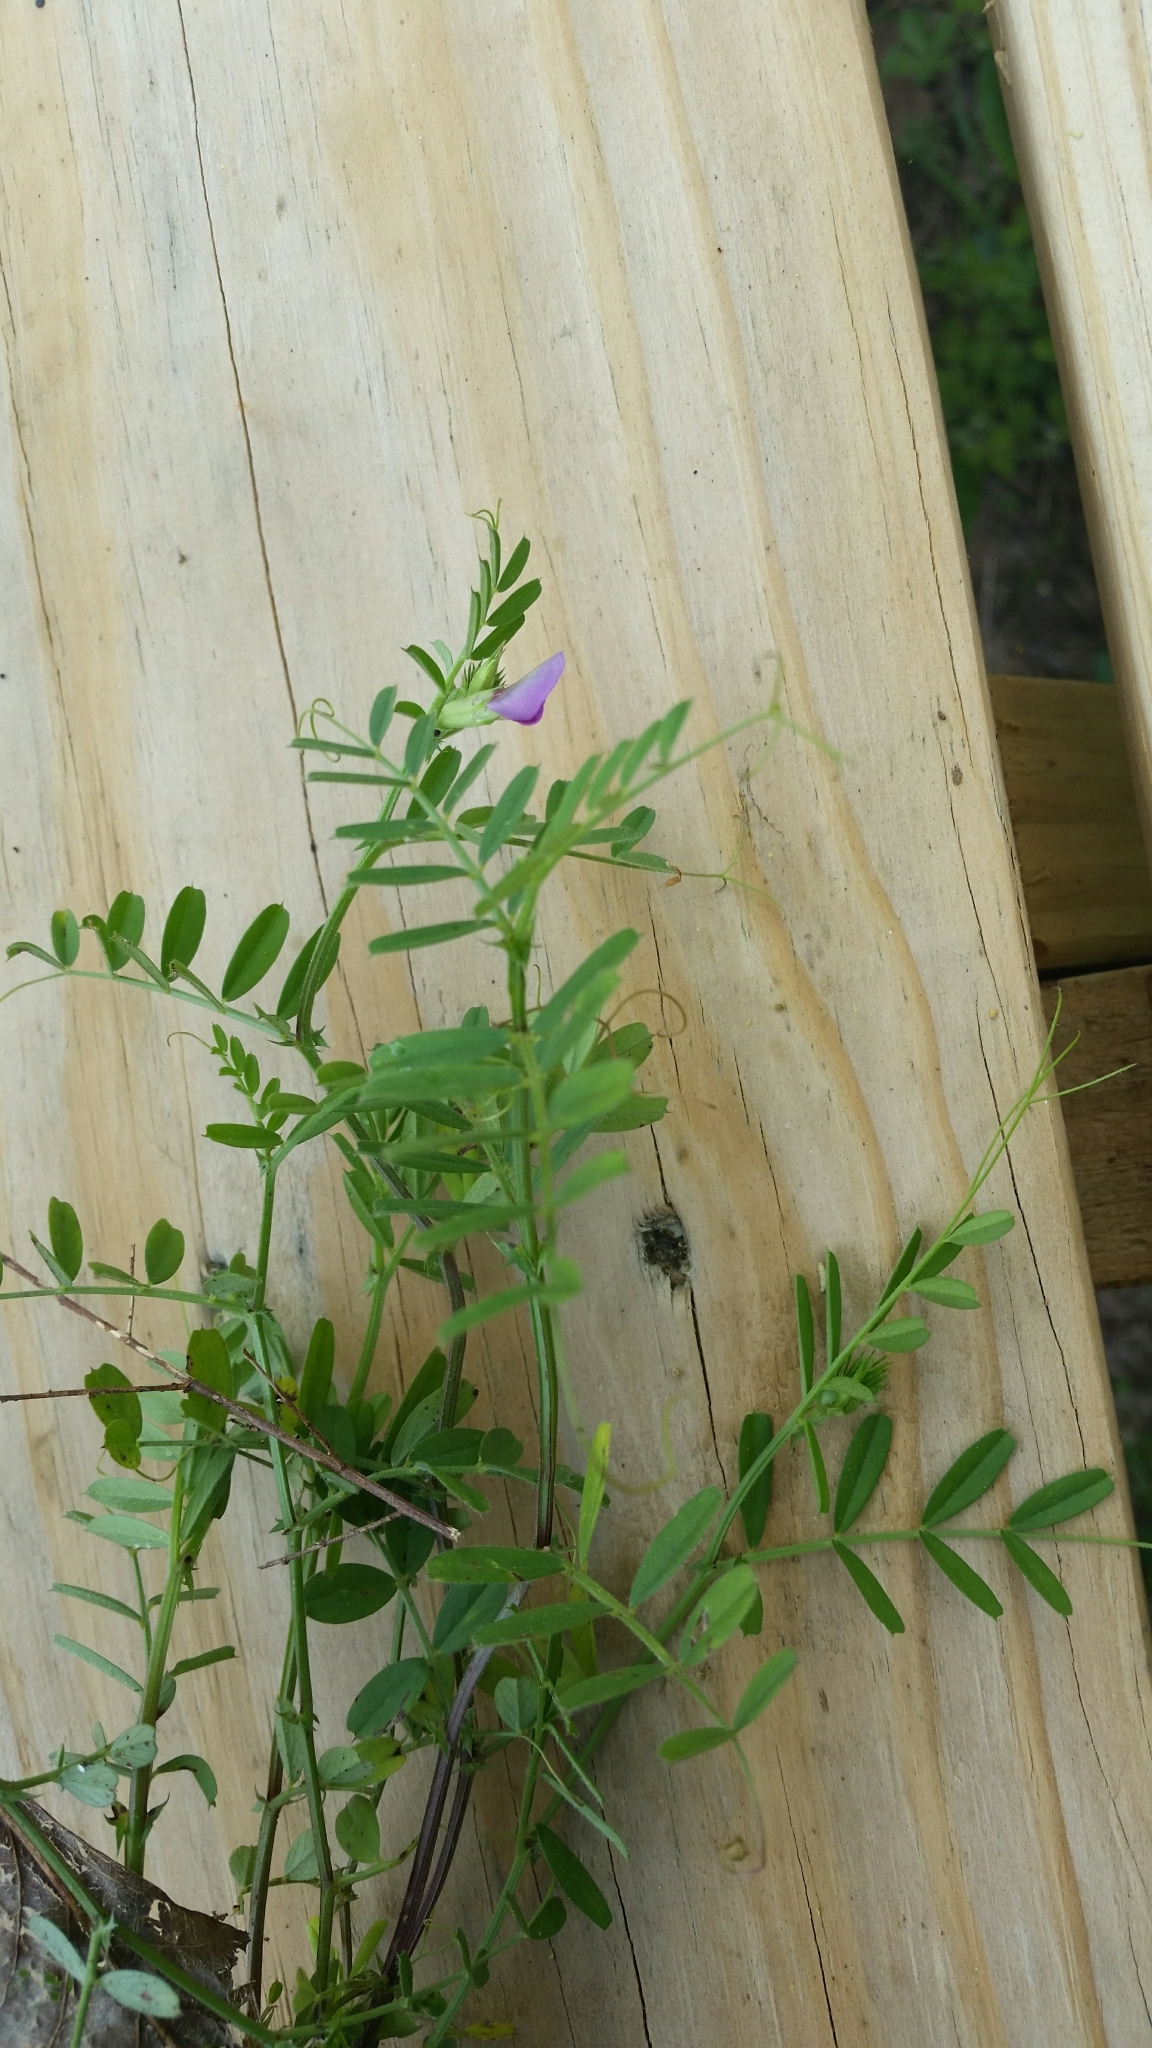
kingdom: Plantae
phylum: Tracheophyta
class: Magnoliopsida
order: Fabales
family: Fabaceae
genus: Vicia
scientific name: Vicia sativa
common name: Garden vetch
